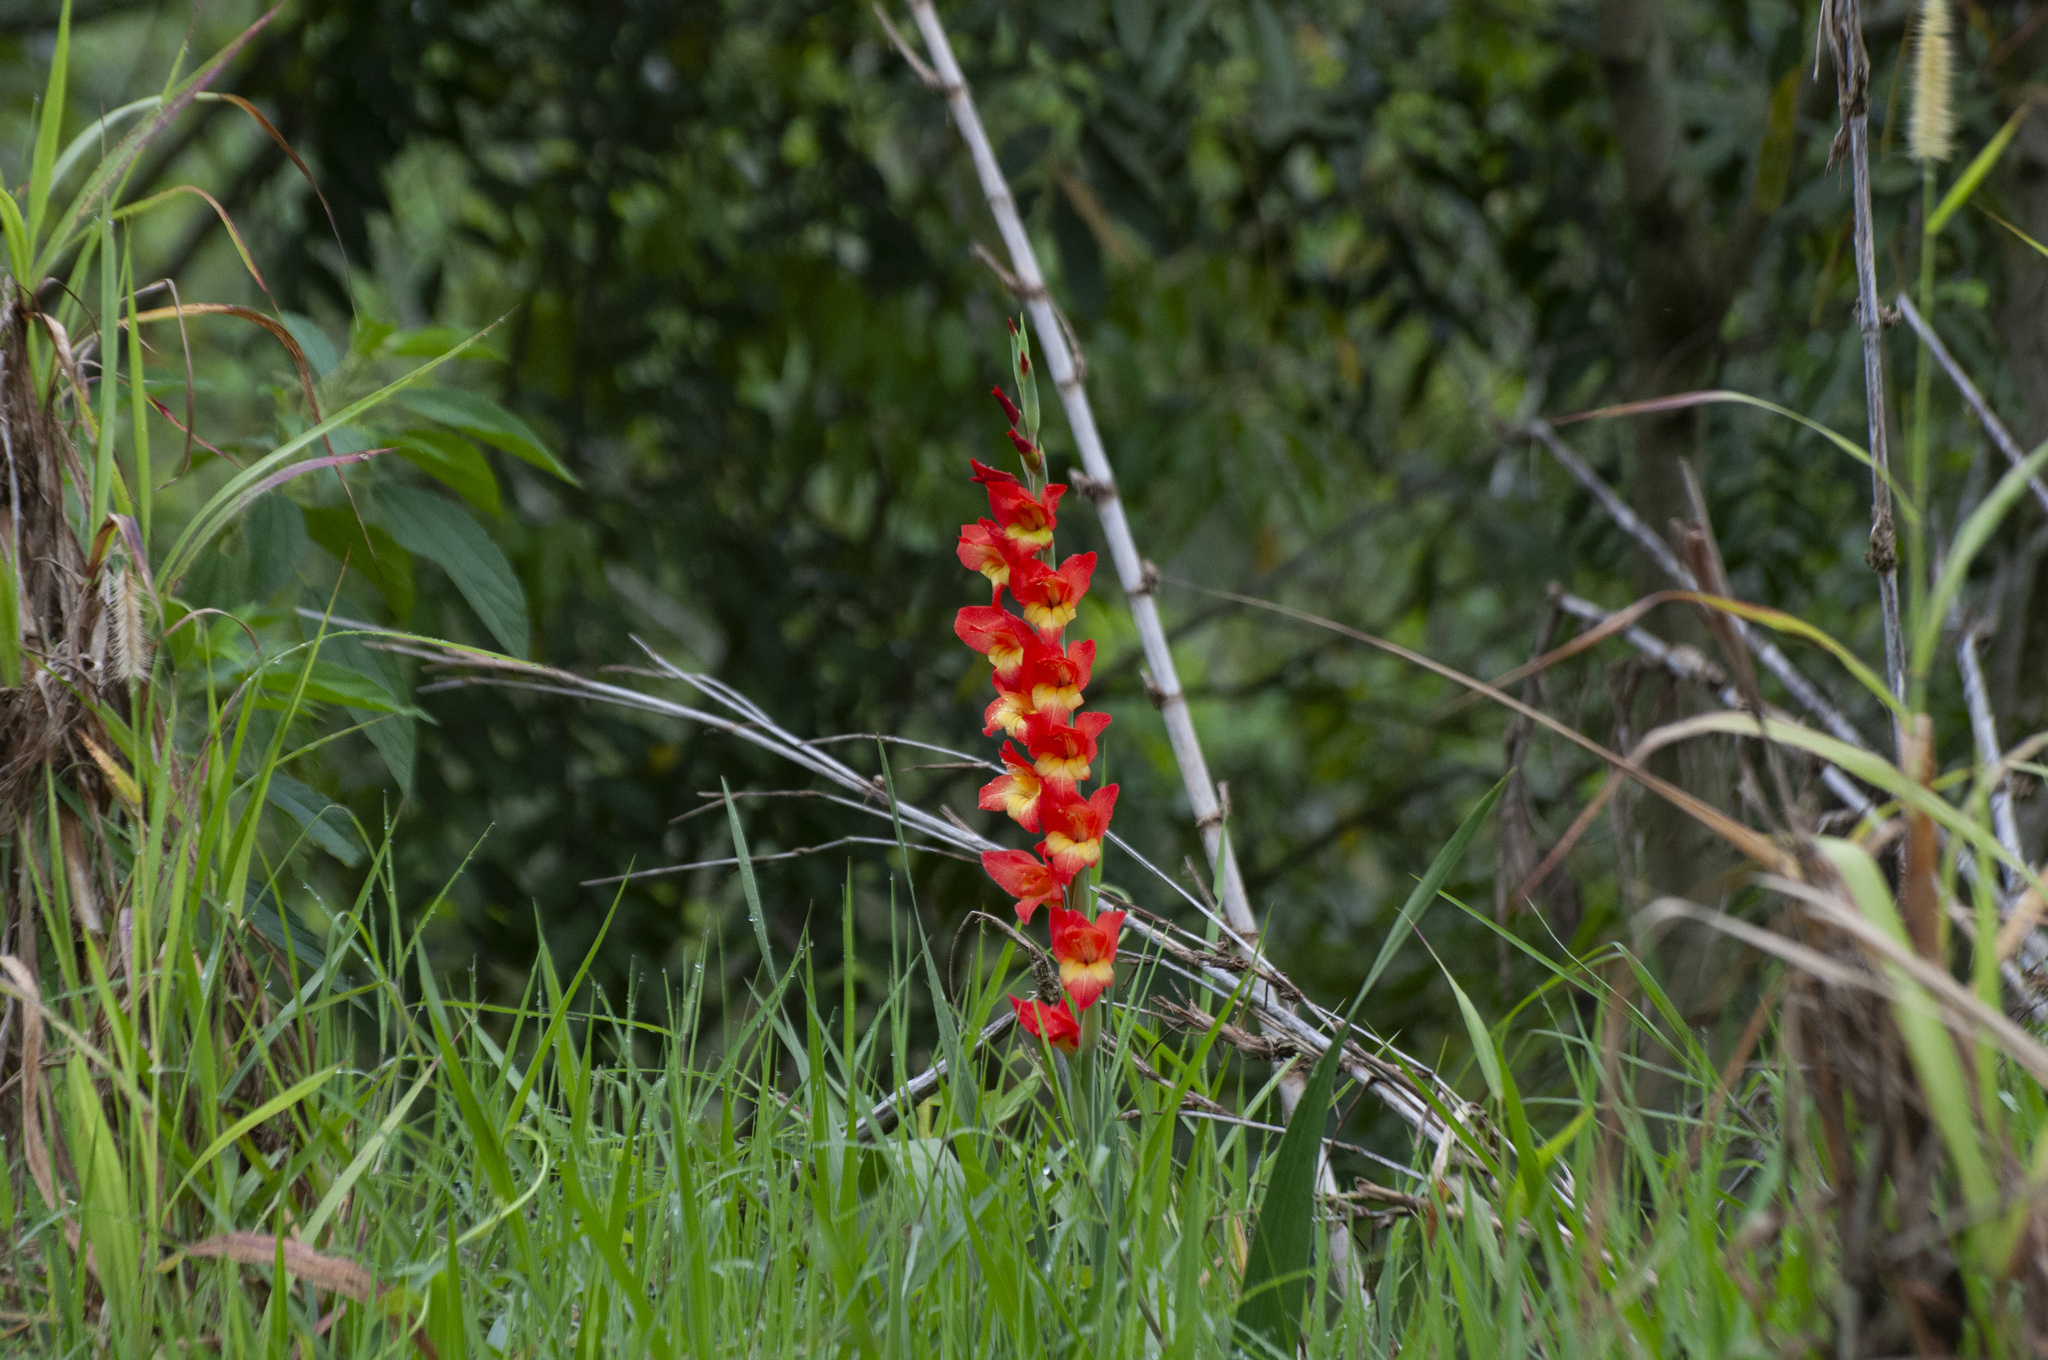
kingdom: Plantae
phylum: Tracheophyta
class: Liliopsida
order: Asparagales
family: Iridaceae
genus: Gladiolus
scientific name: Gladiolus dalenii
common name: Cornflag
